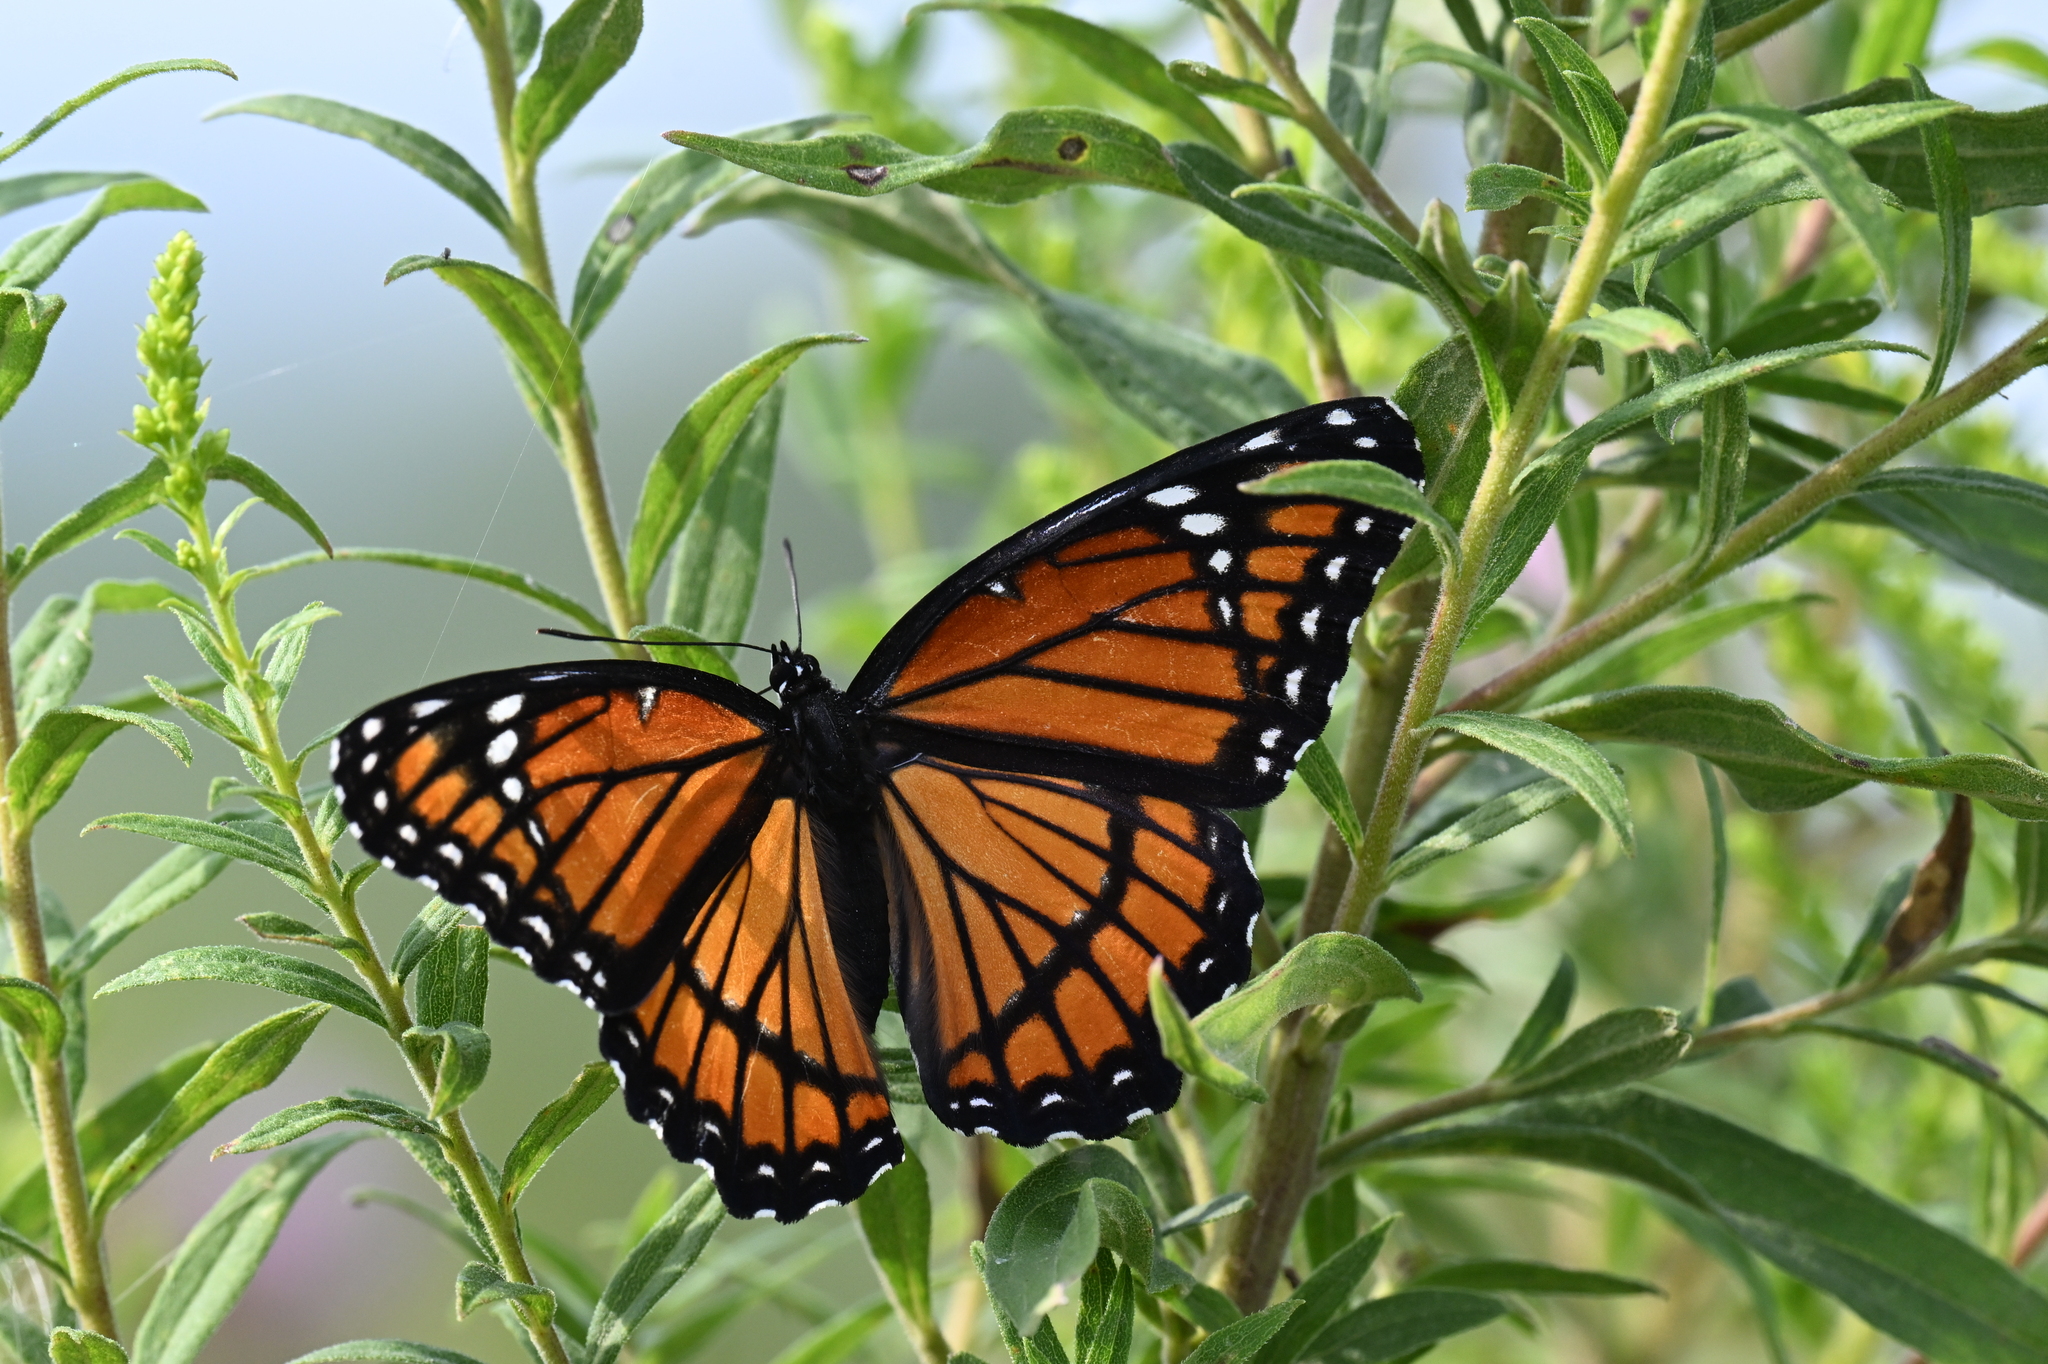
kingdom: Animalia
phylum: Arthropoda
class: Insecta
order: Lepidoptera
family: Nymphalidae
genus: Limenitis
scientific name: Limenitis archippus
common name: Viceroy
